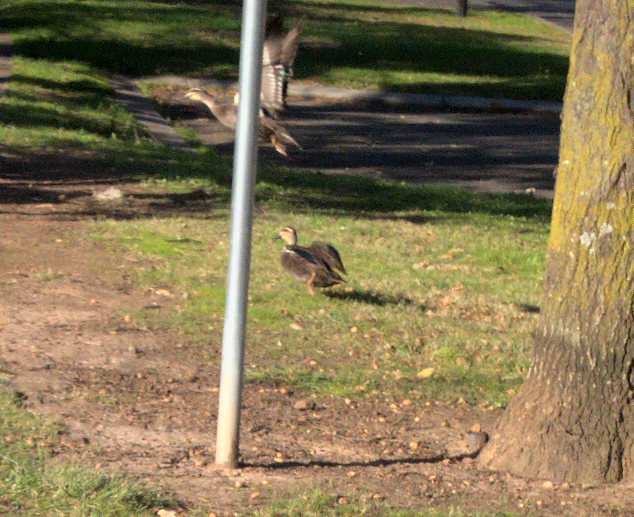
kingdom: Animalia
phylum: Chordata
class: Aves
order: Anseriformes
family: Anatidae
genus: Anas
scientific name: Anas
